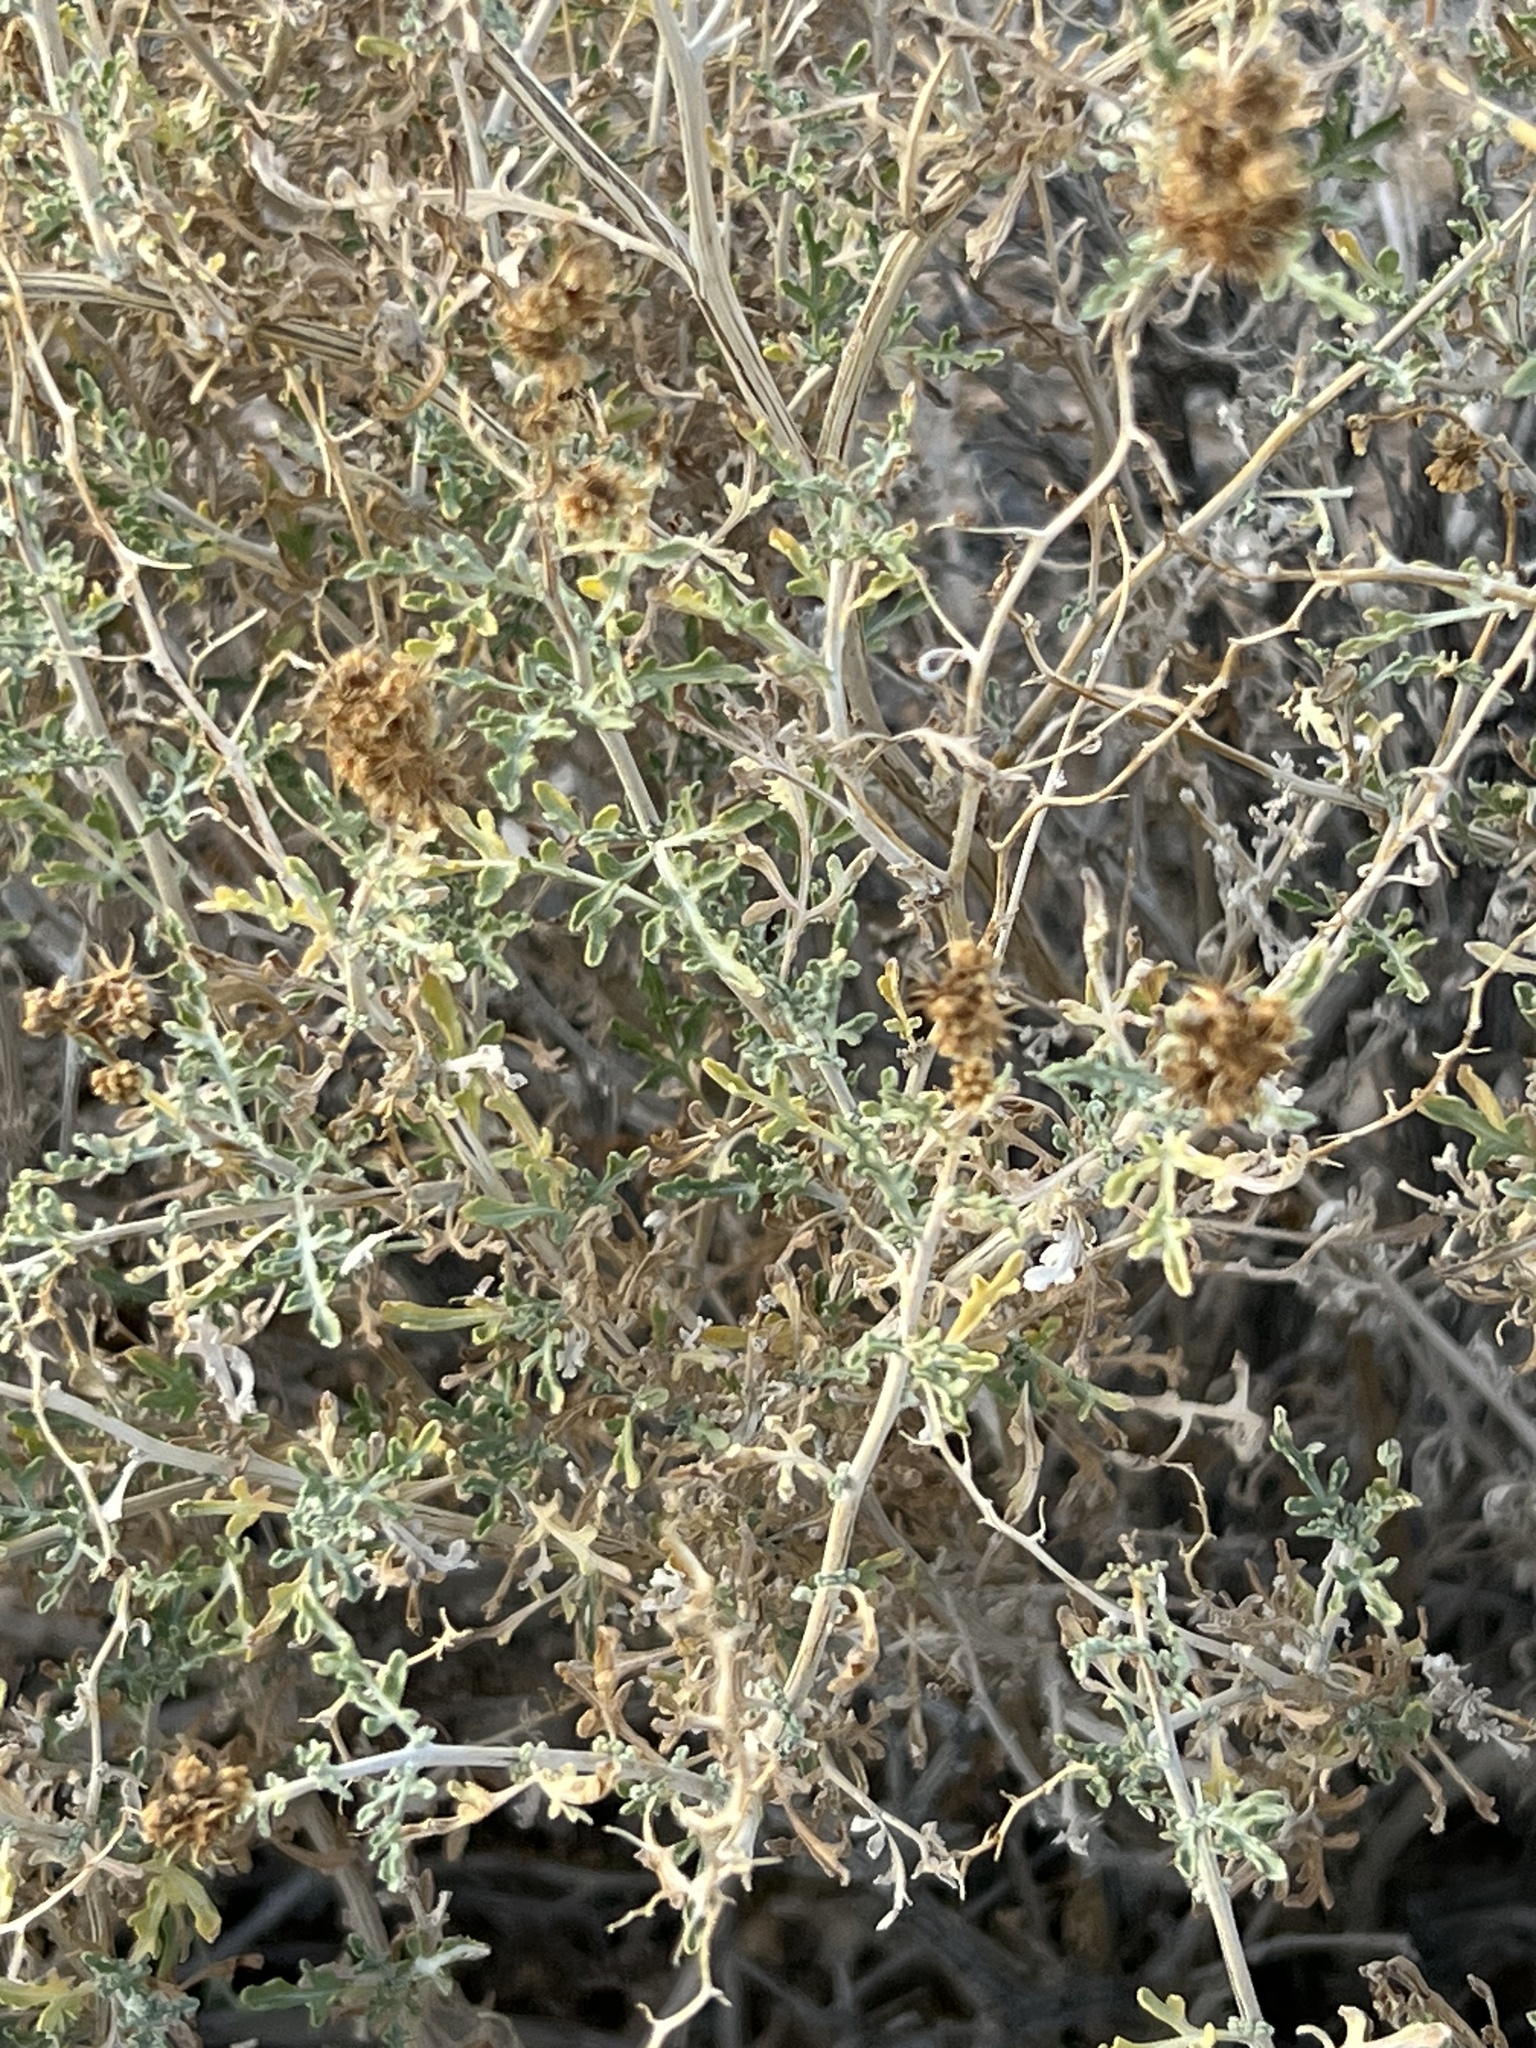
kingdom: Plantae
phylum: Tracheophyta
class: Magnoliopsida
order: Asterales
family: Asteraceae
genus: Ambrosia
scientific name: Ambrosia dumosa
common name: Bur-sage
